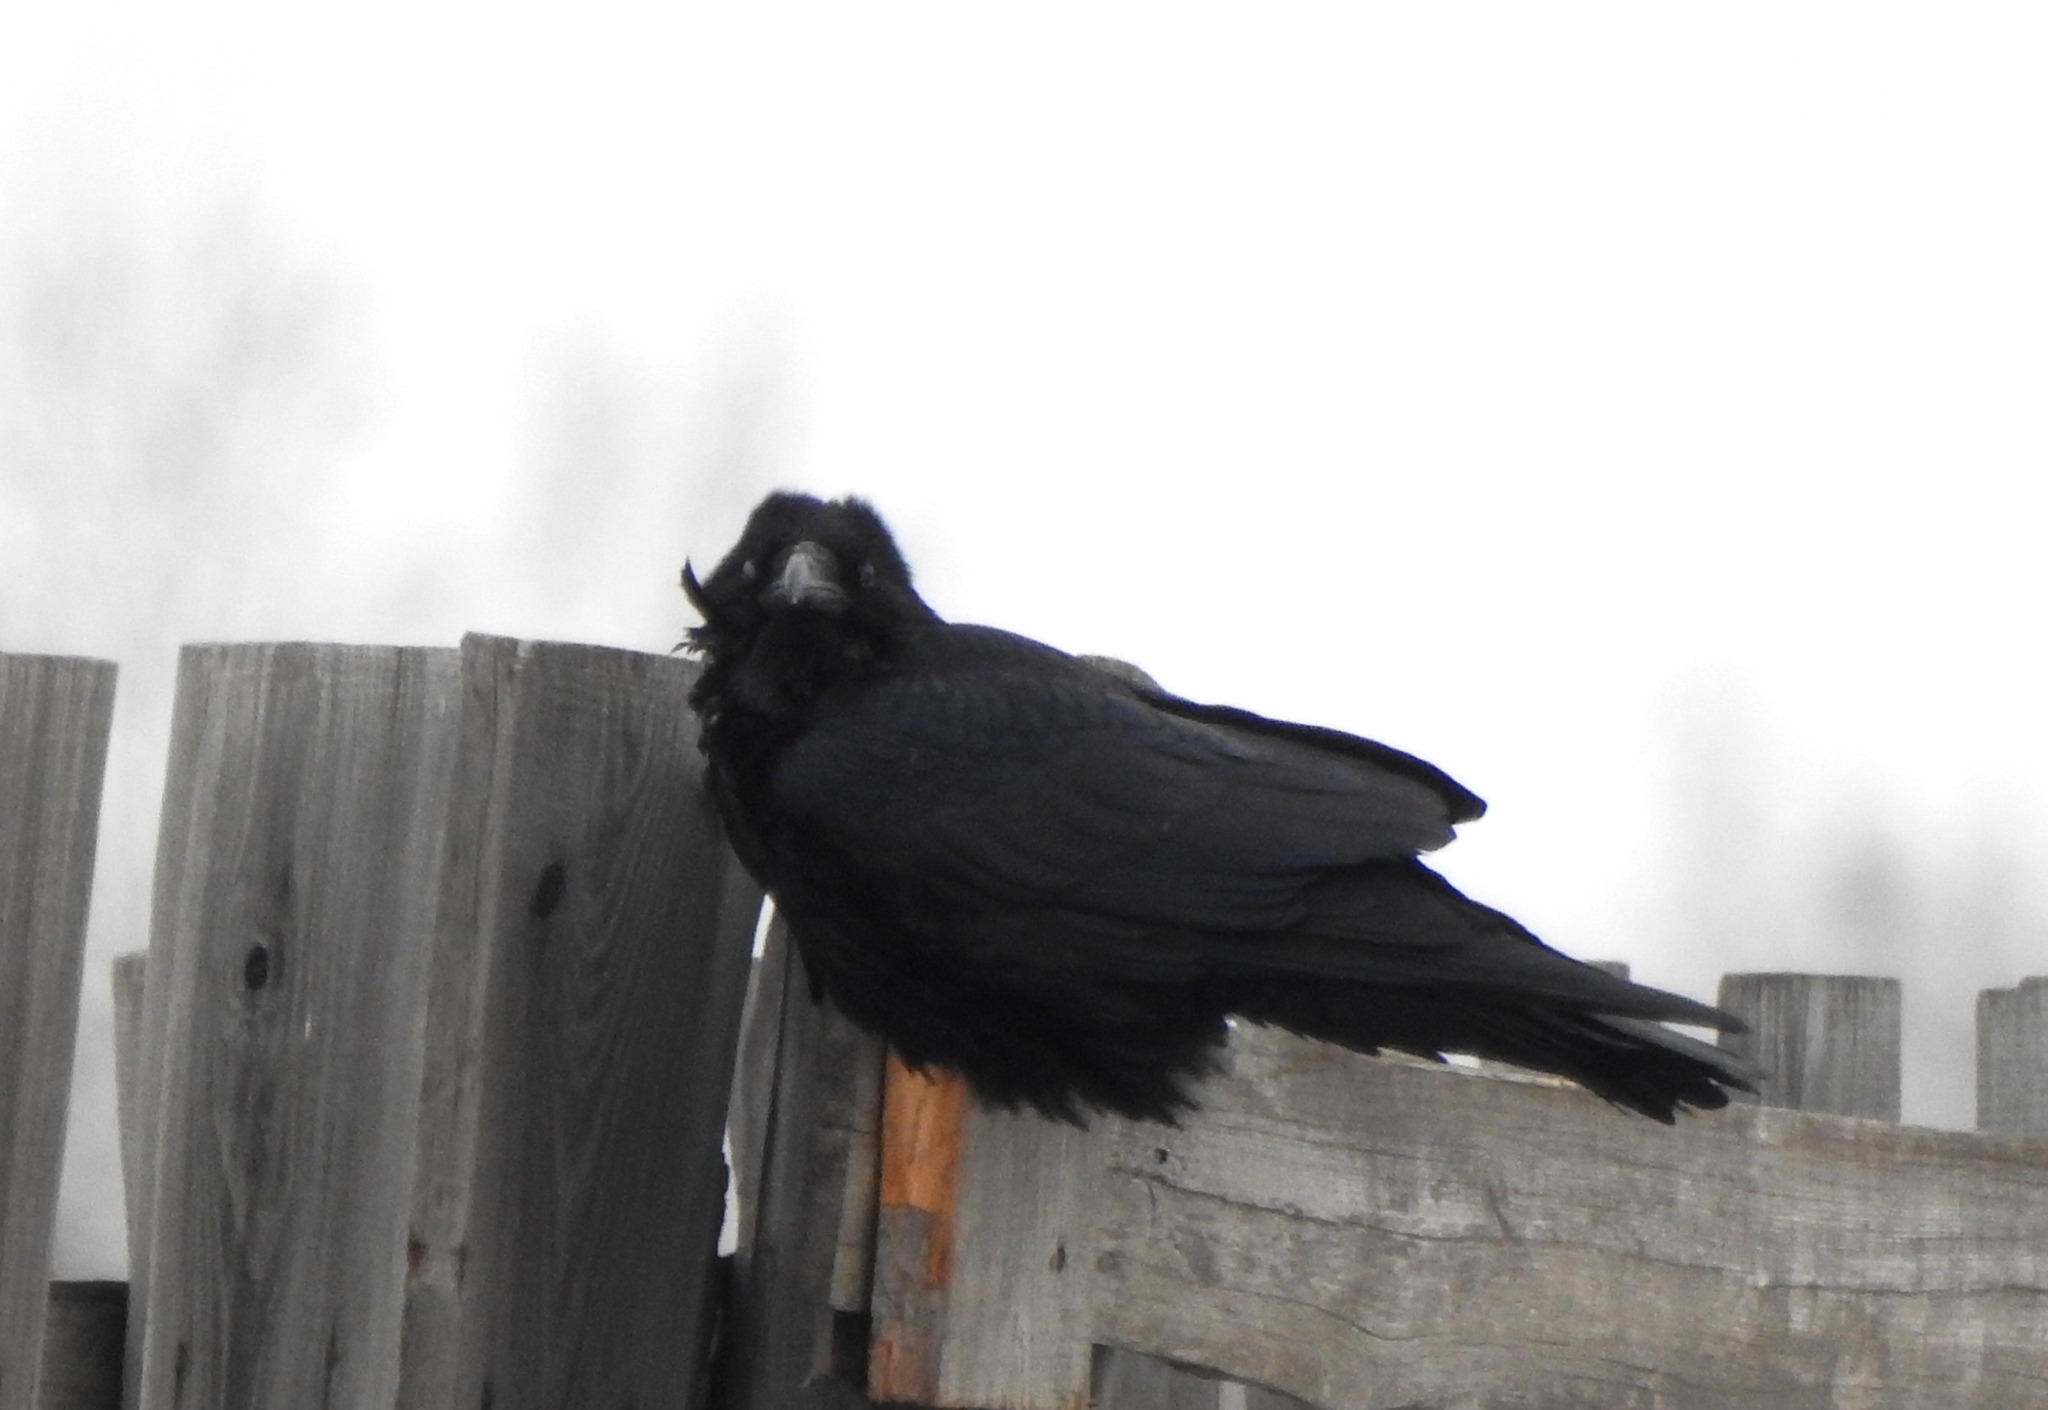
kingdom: Animalia
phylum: Chordata
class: Aves
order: Passeriformes
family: Corvidae
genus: Corvus
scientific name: Corvus corax
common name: Common raven
